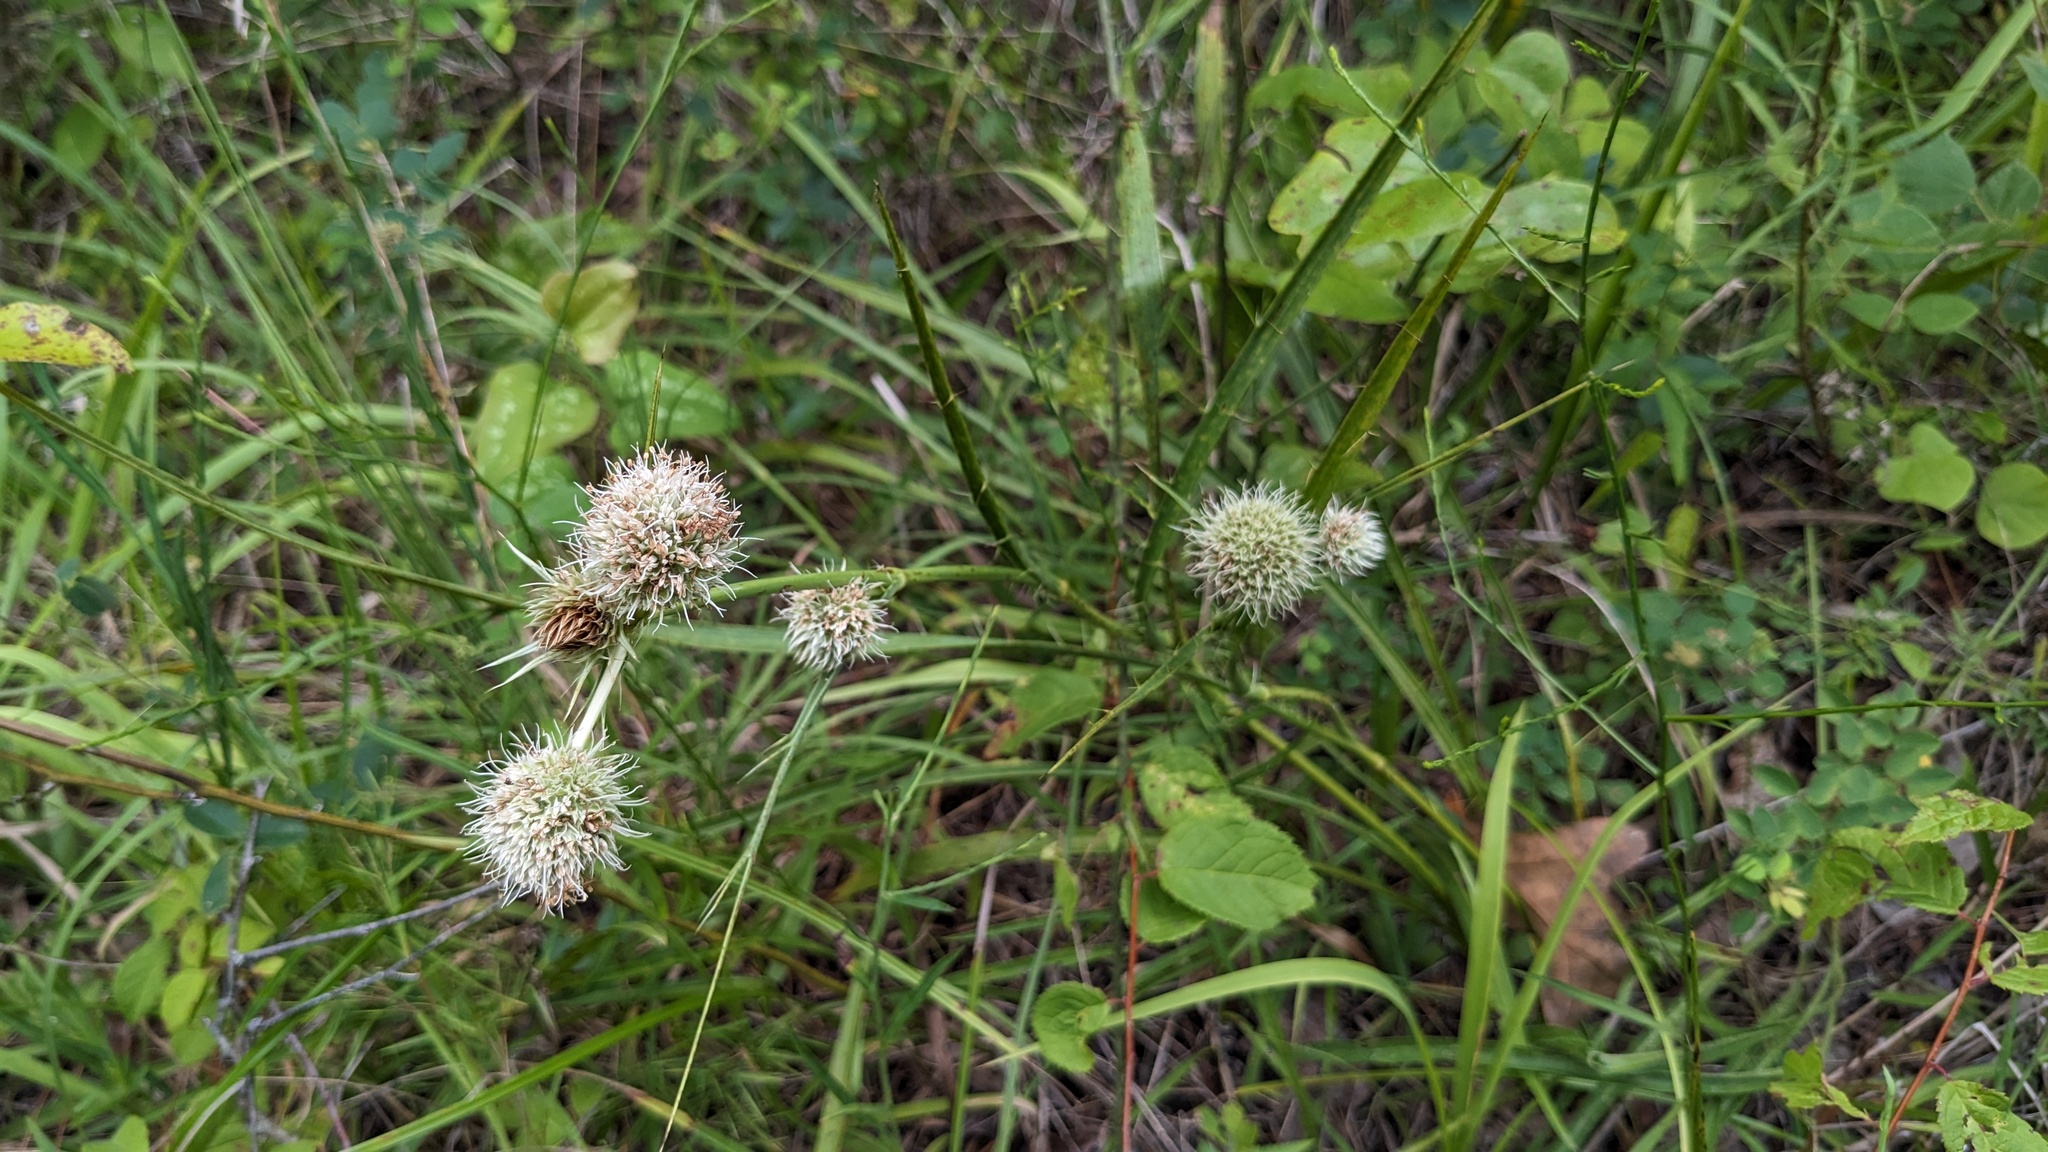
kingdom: Plantae
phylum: Tracheophyta
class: Magnoliopsida
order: Apiales
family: Apiaceae
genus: Eryngium
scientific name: Eryngium yuccifolium
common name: Button eryngo
